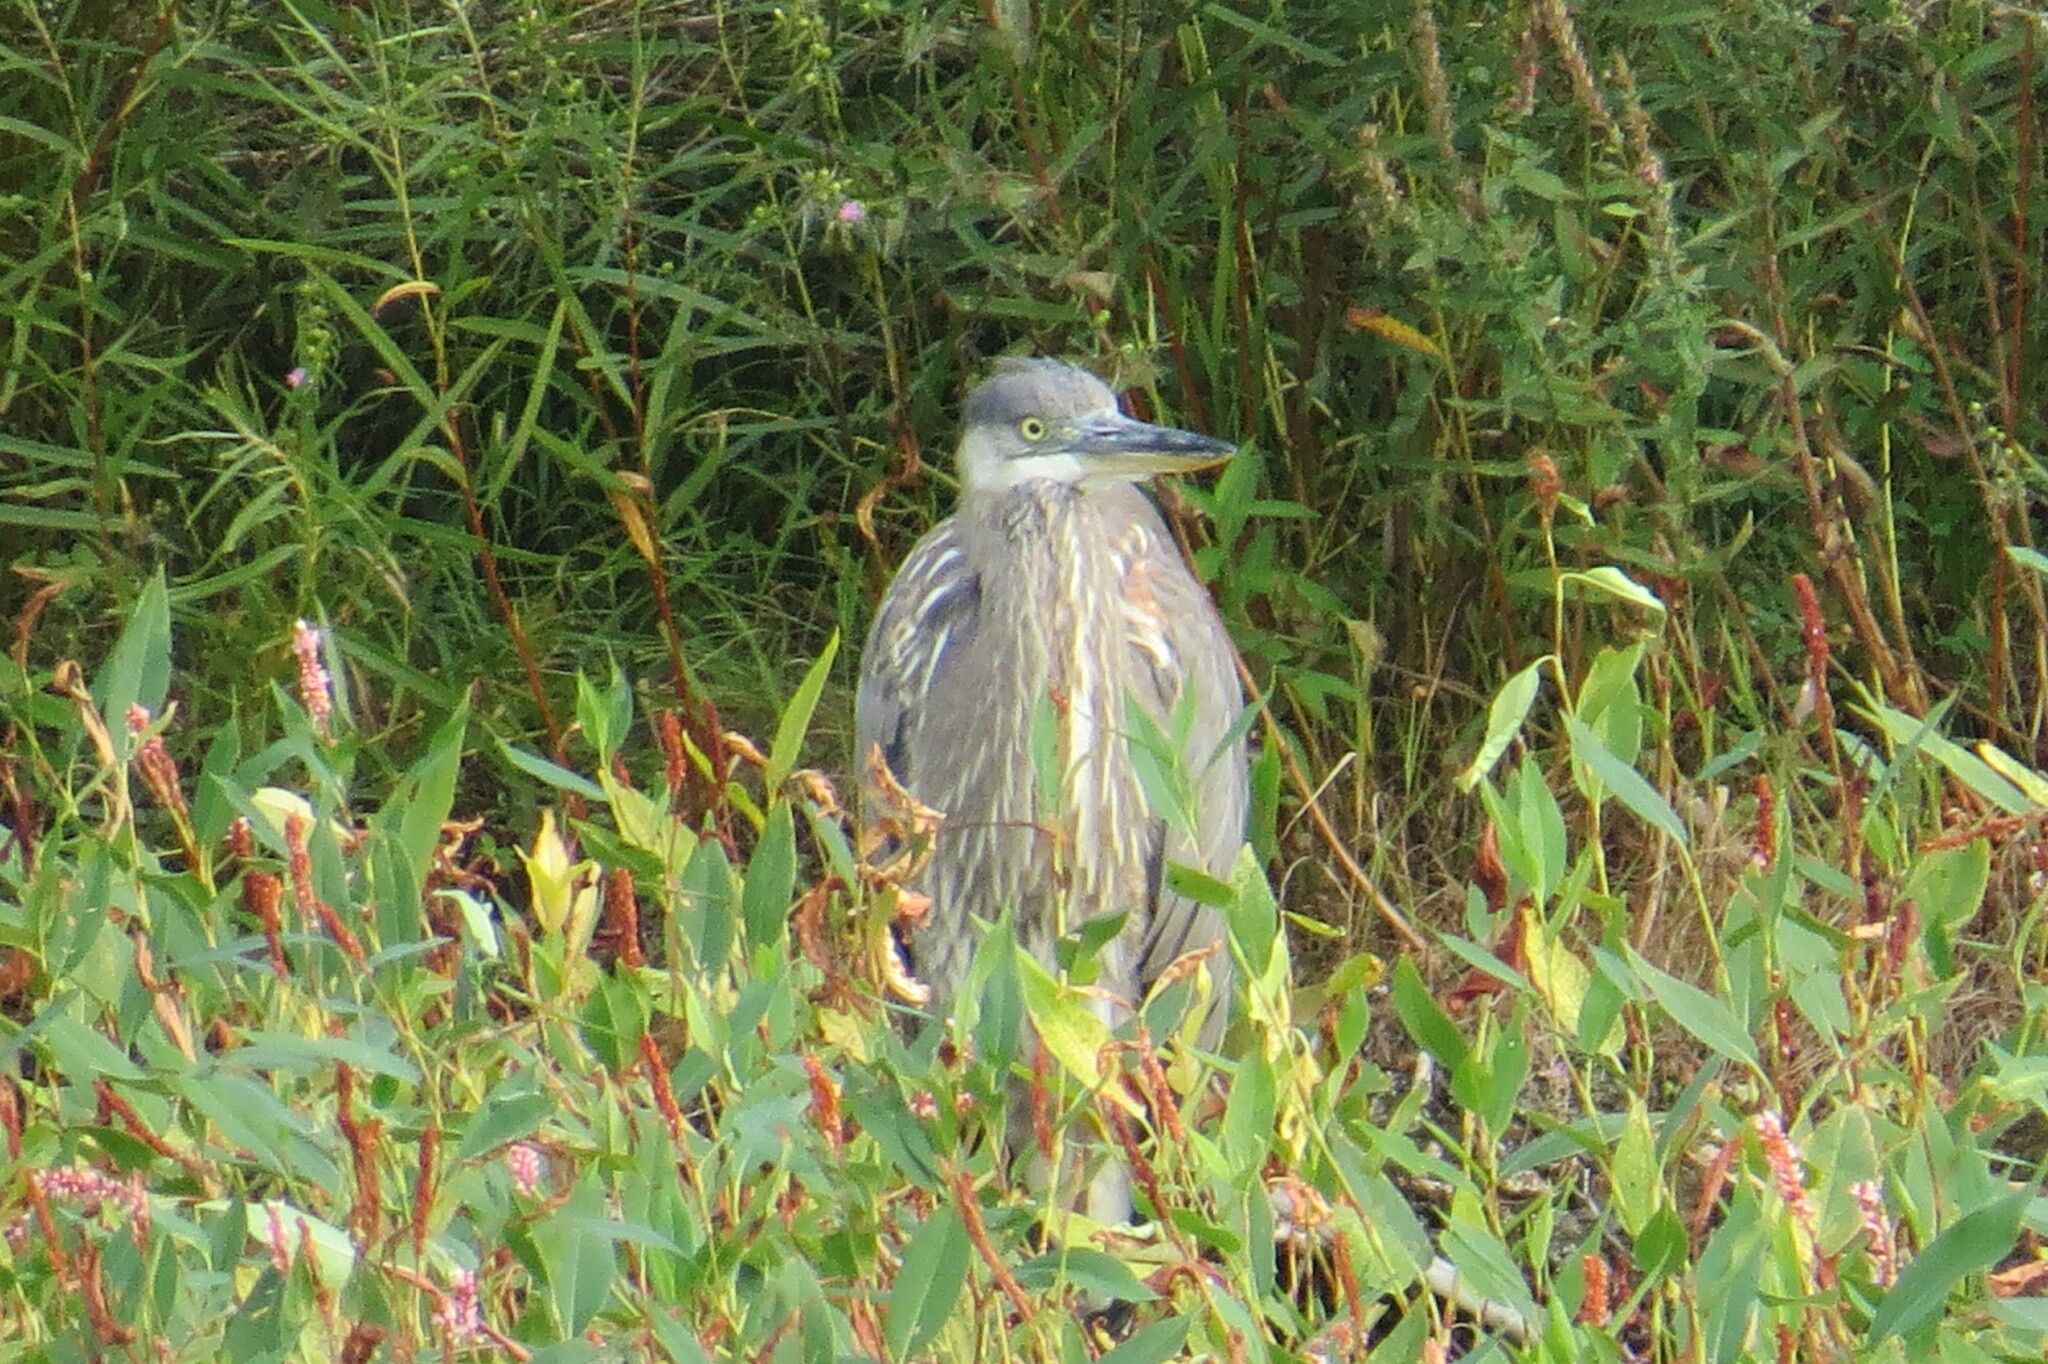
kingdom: Animalia
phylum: Chordata
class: Aves
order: Pelecaniformes
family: Ardeidae
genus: Ardea
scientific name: Ardea herodias
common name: Great blue heron
